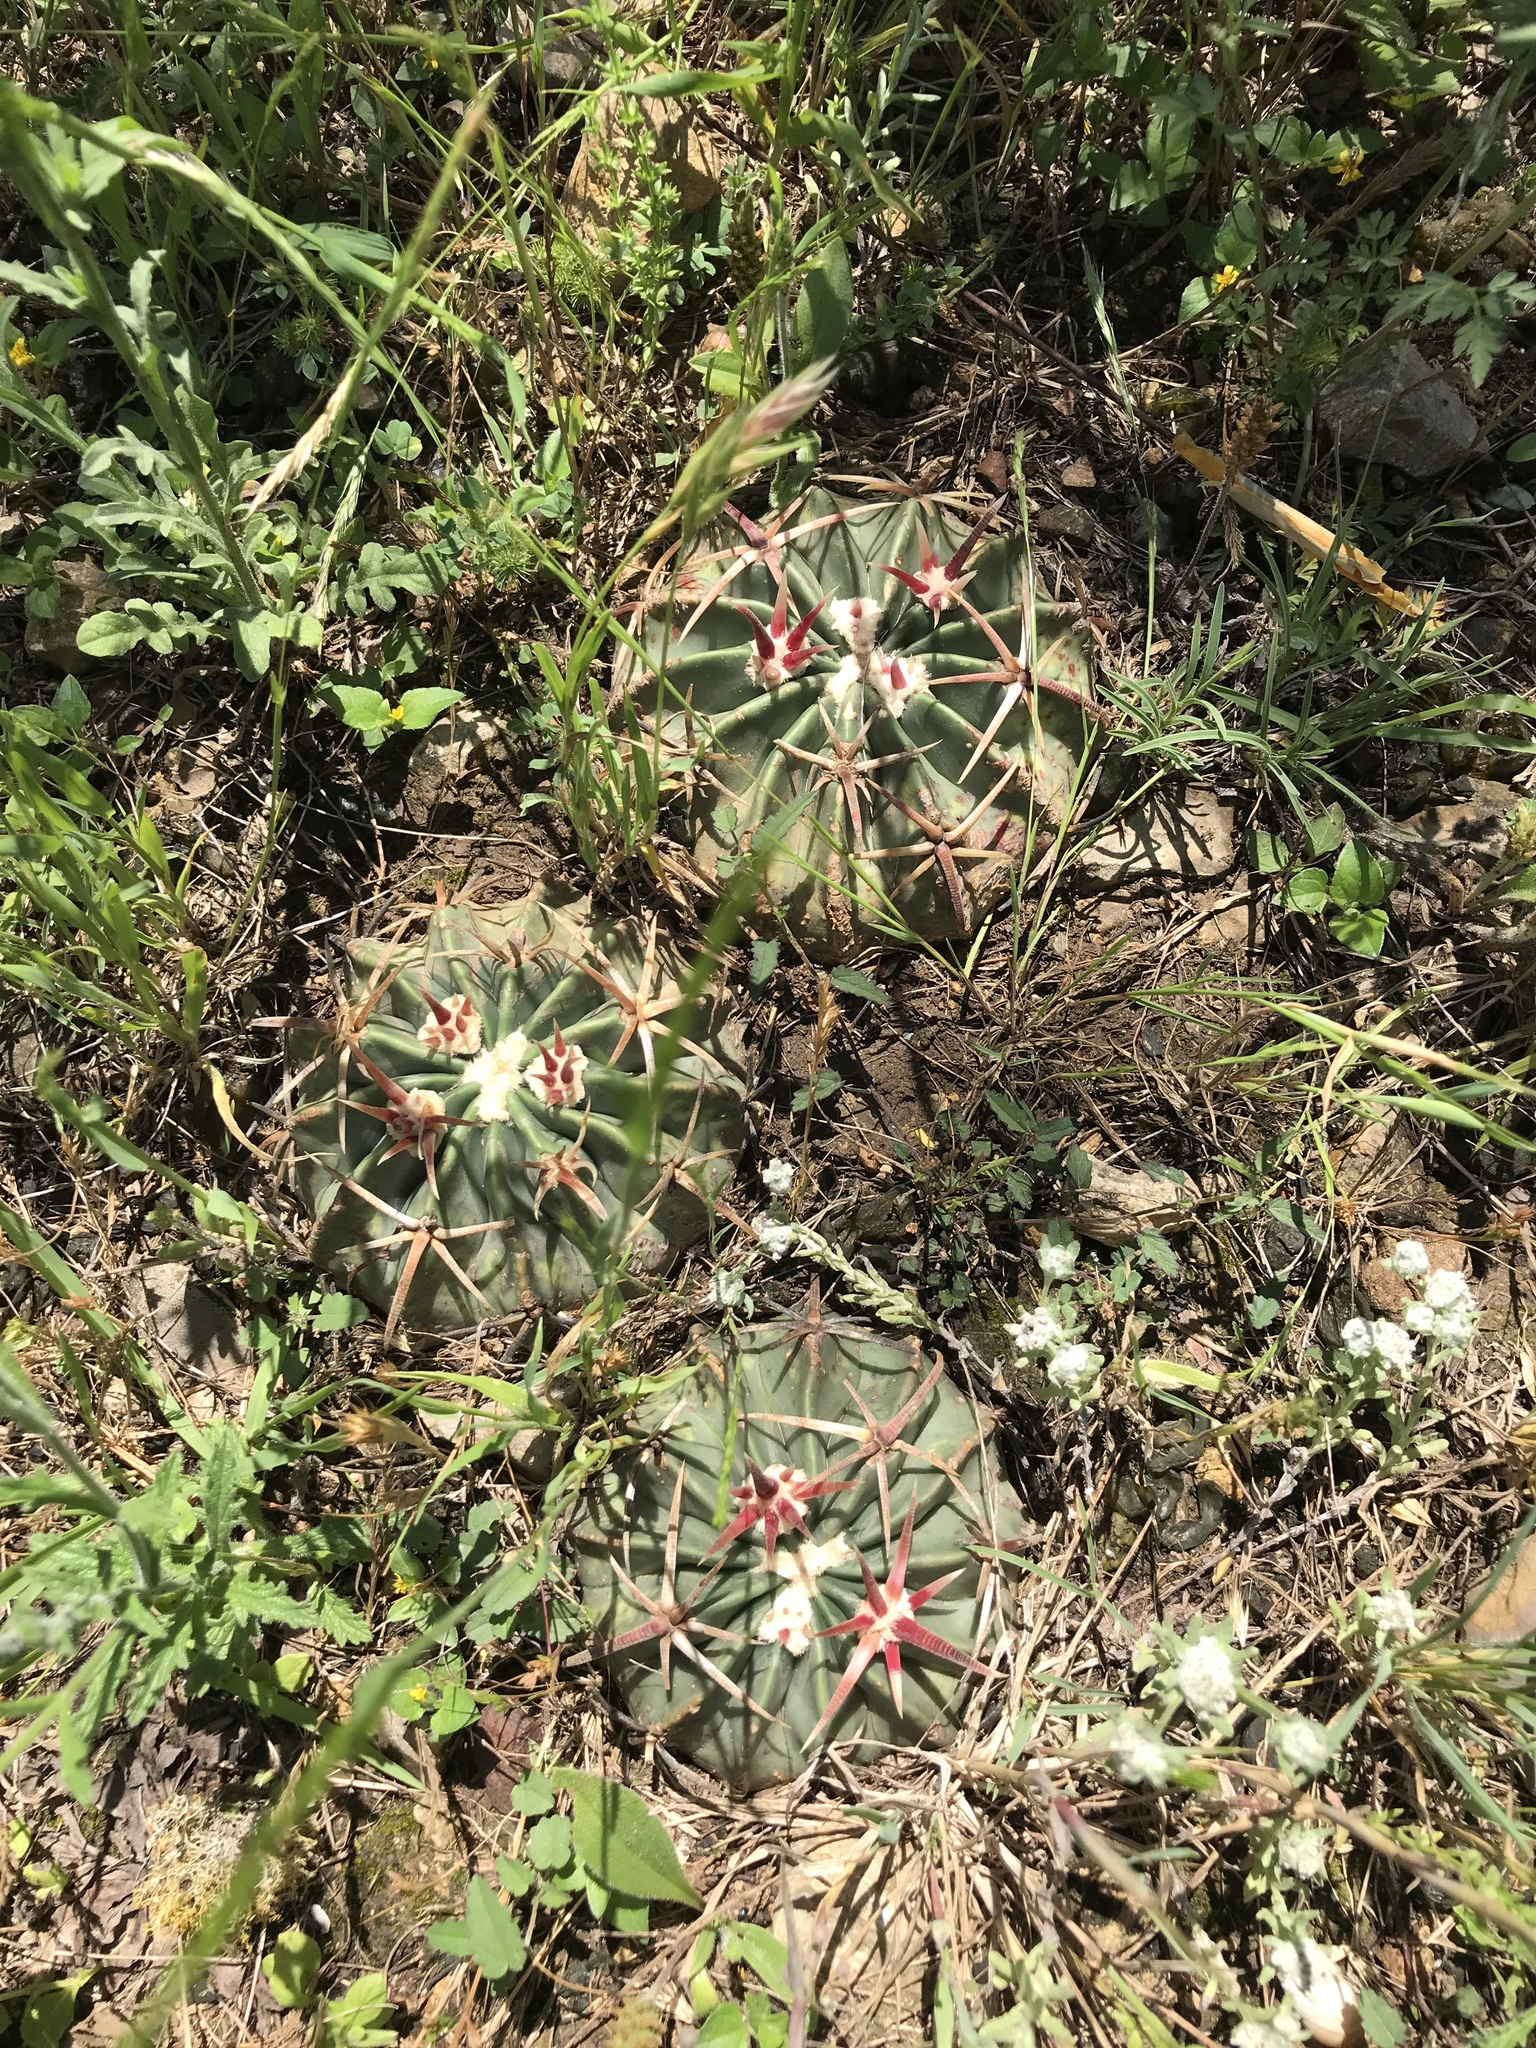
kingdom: Plantae
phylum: Tracheophyta
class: Magnoliopsida
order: Caryophyllales
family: Cactaceae
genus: Echinocactus
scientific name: Echinocactus texensis
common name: Devil's pincushion
